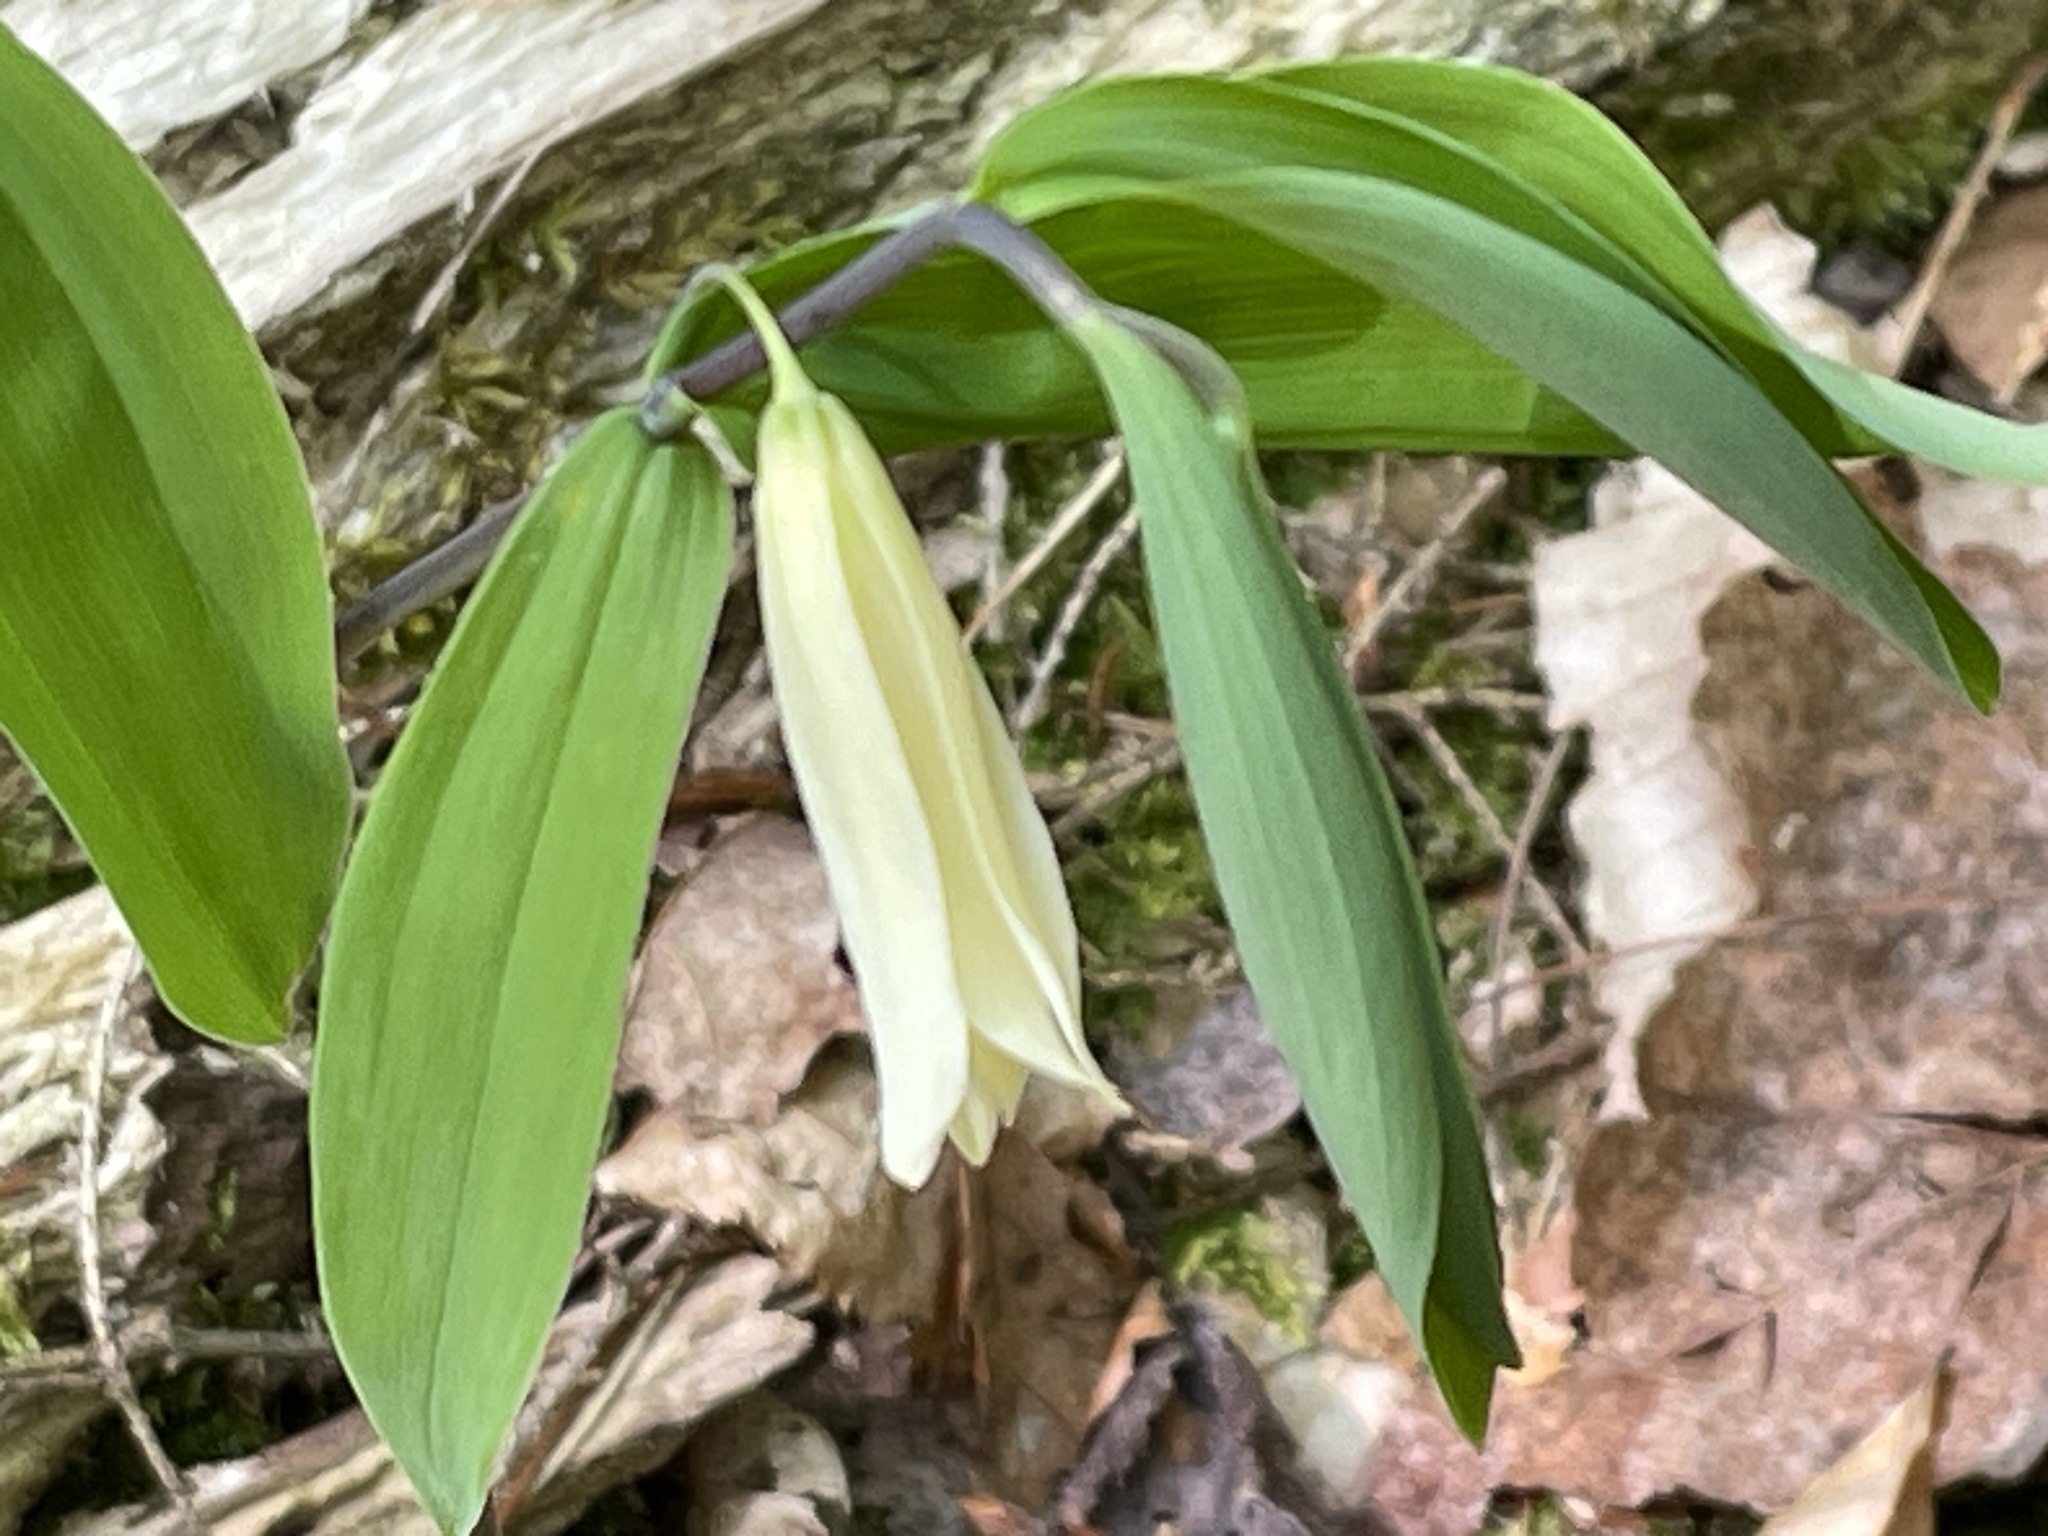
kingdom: Plantae
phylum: Tracheophyta
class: Liliopsida
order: Liliales
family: Colchicaceae
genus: Uvularia
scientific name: Uvularia sessilifolia
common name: Straw-lily
